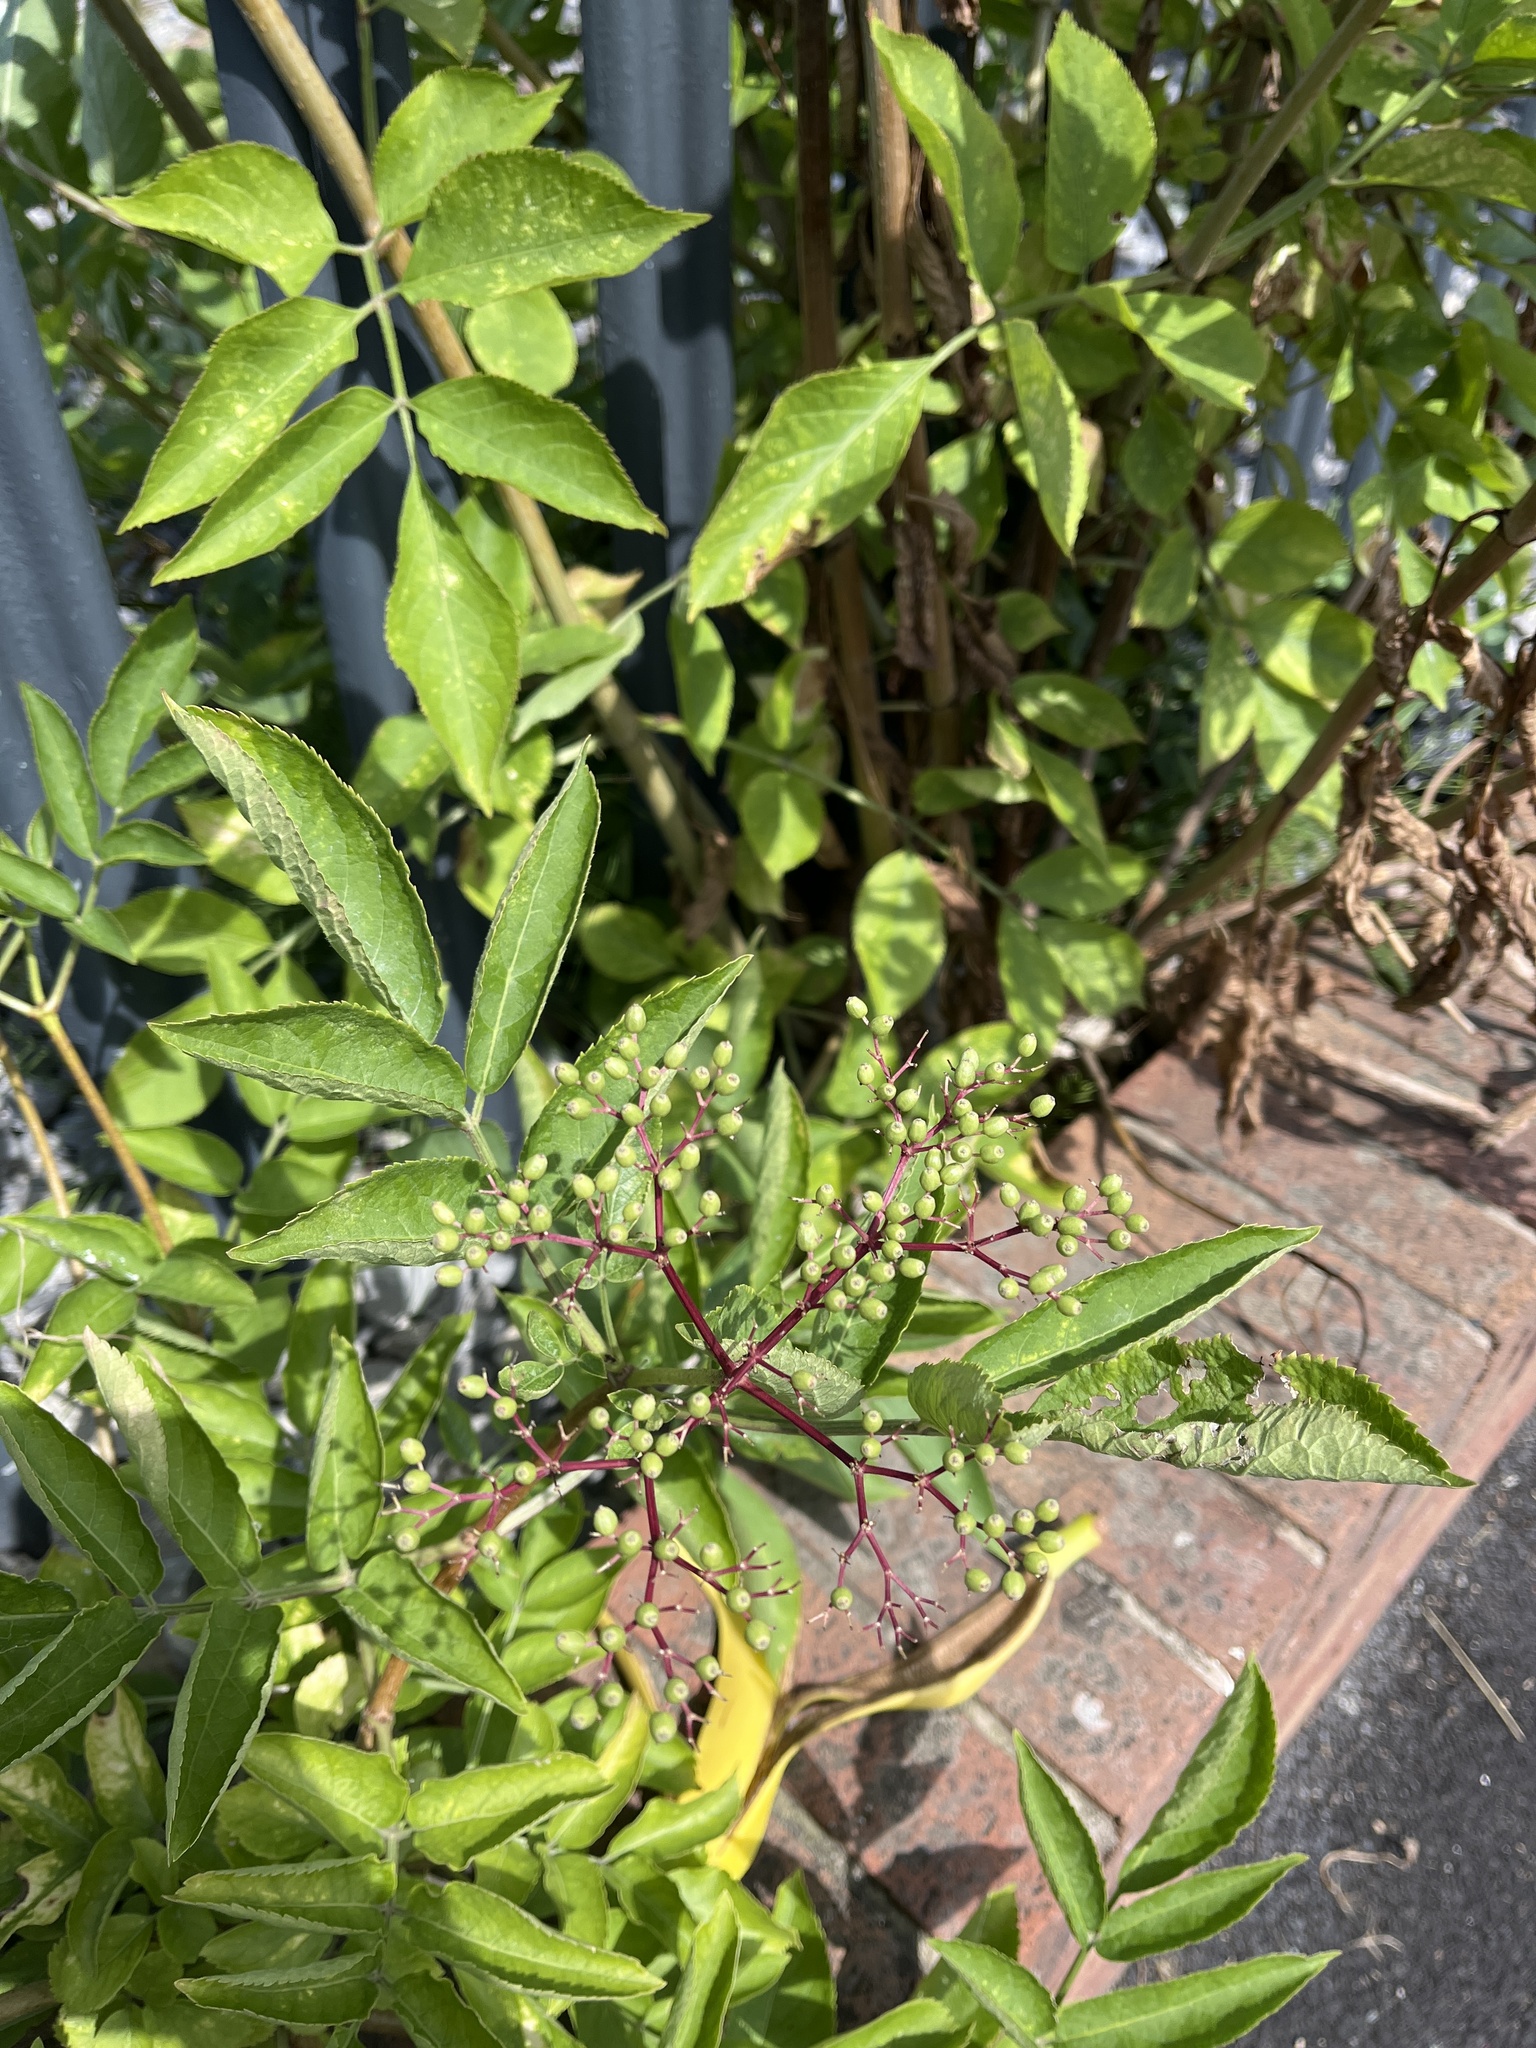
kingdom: Plantae
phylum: Tracheophyta
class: Magnoliopsida
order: Dipsacales
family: Viburnaceae
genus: Sambucus
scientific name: Sambucus nigra
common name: Elder
